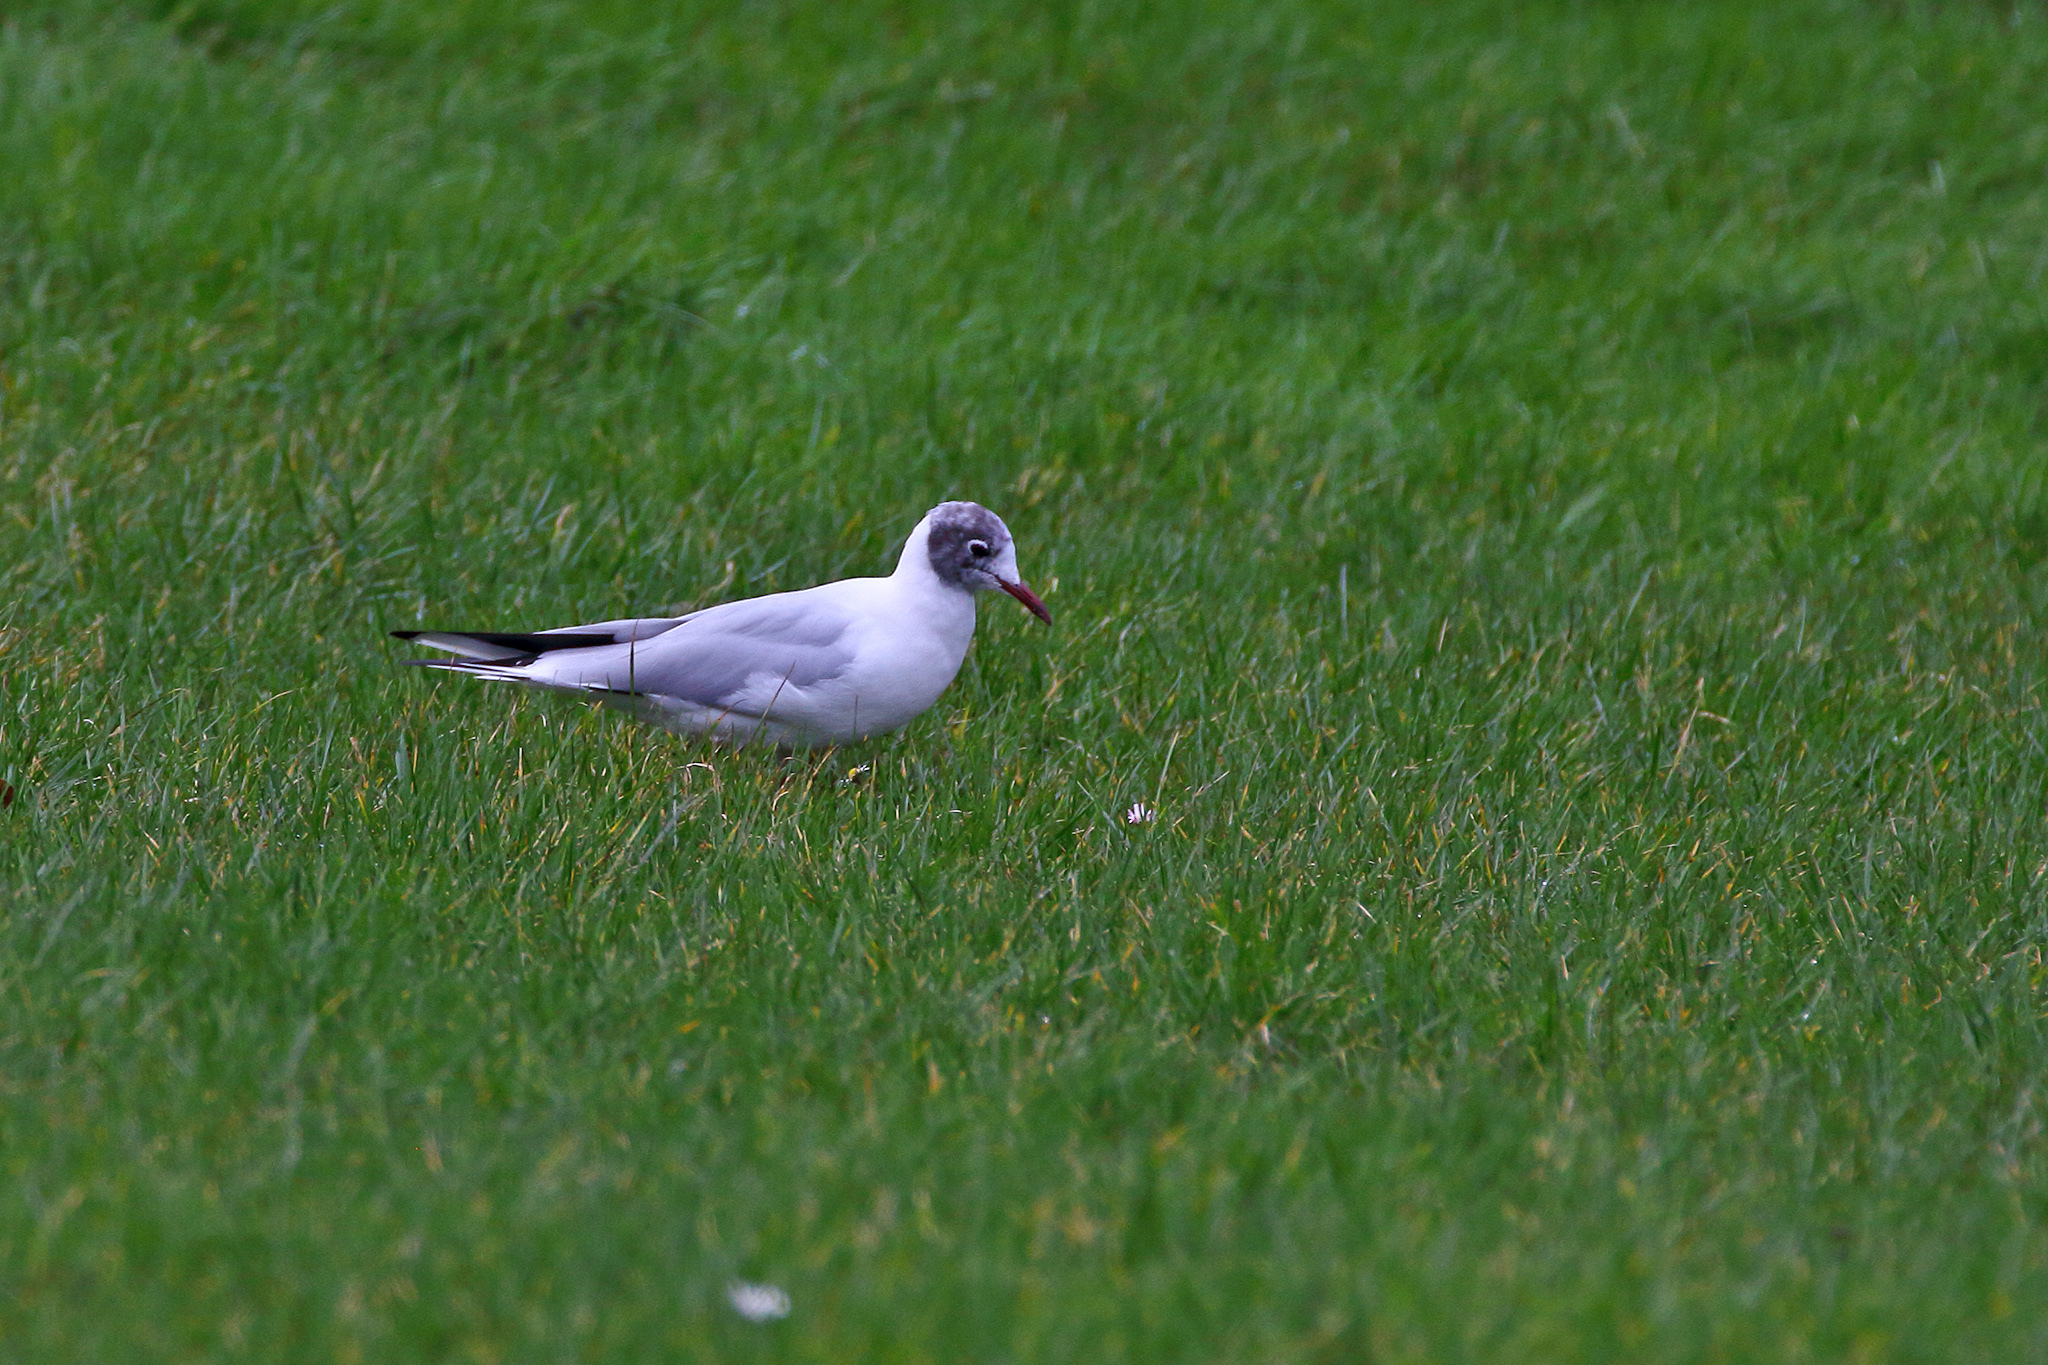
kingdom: Animalia
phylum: Chordata
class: Aves
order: Charadriiformes
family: Laridae
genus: Chroicocephalus
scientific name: Chroicocephalus ridibundus
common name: Black-headed gull
